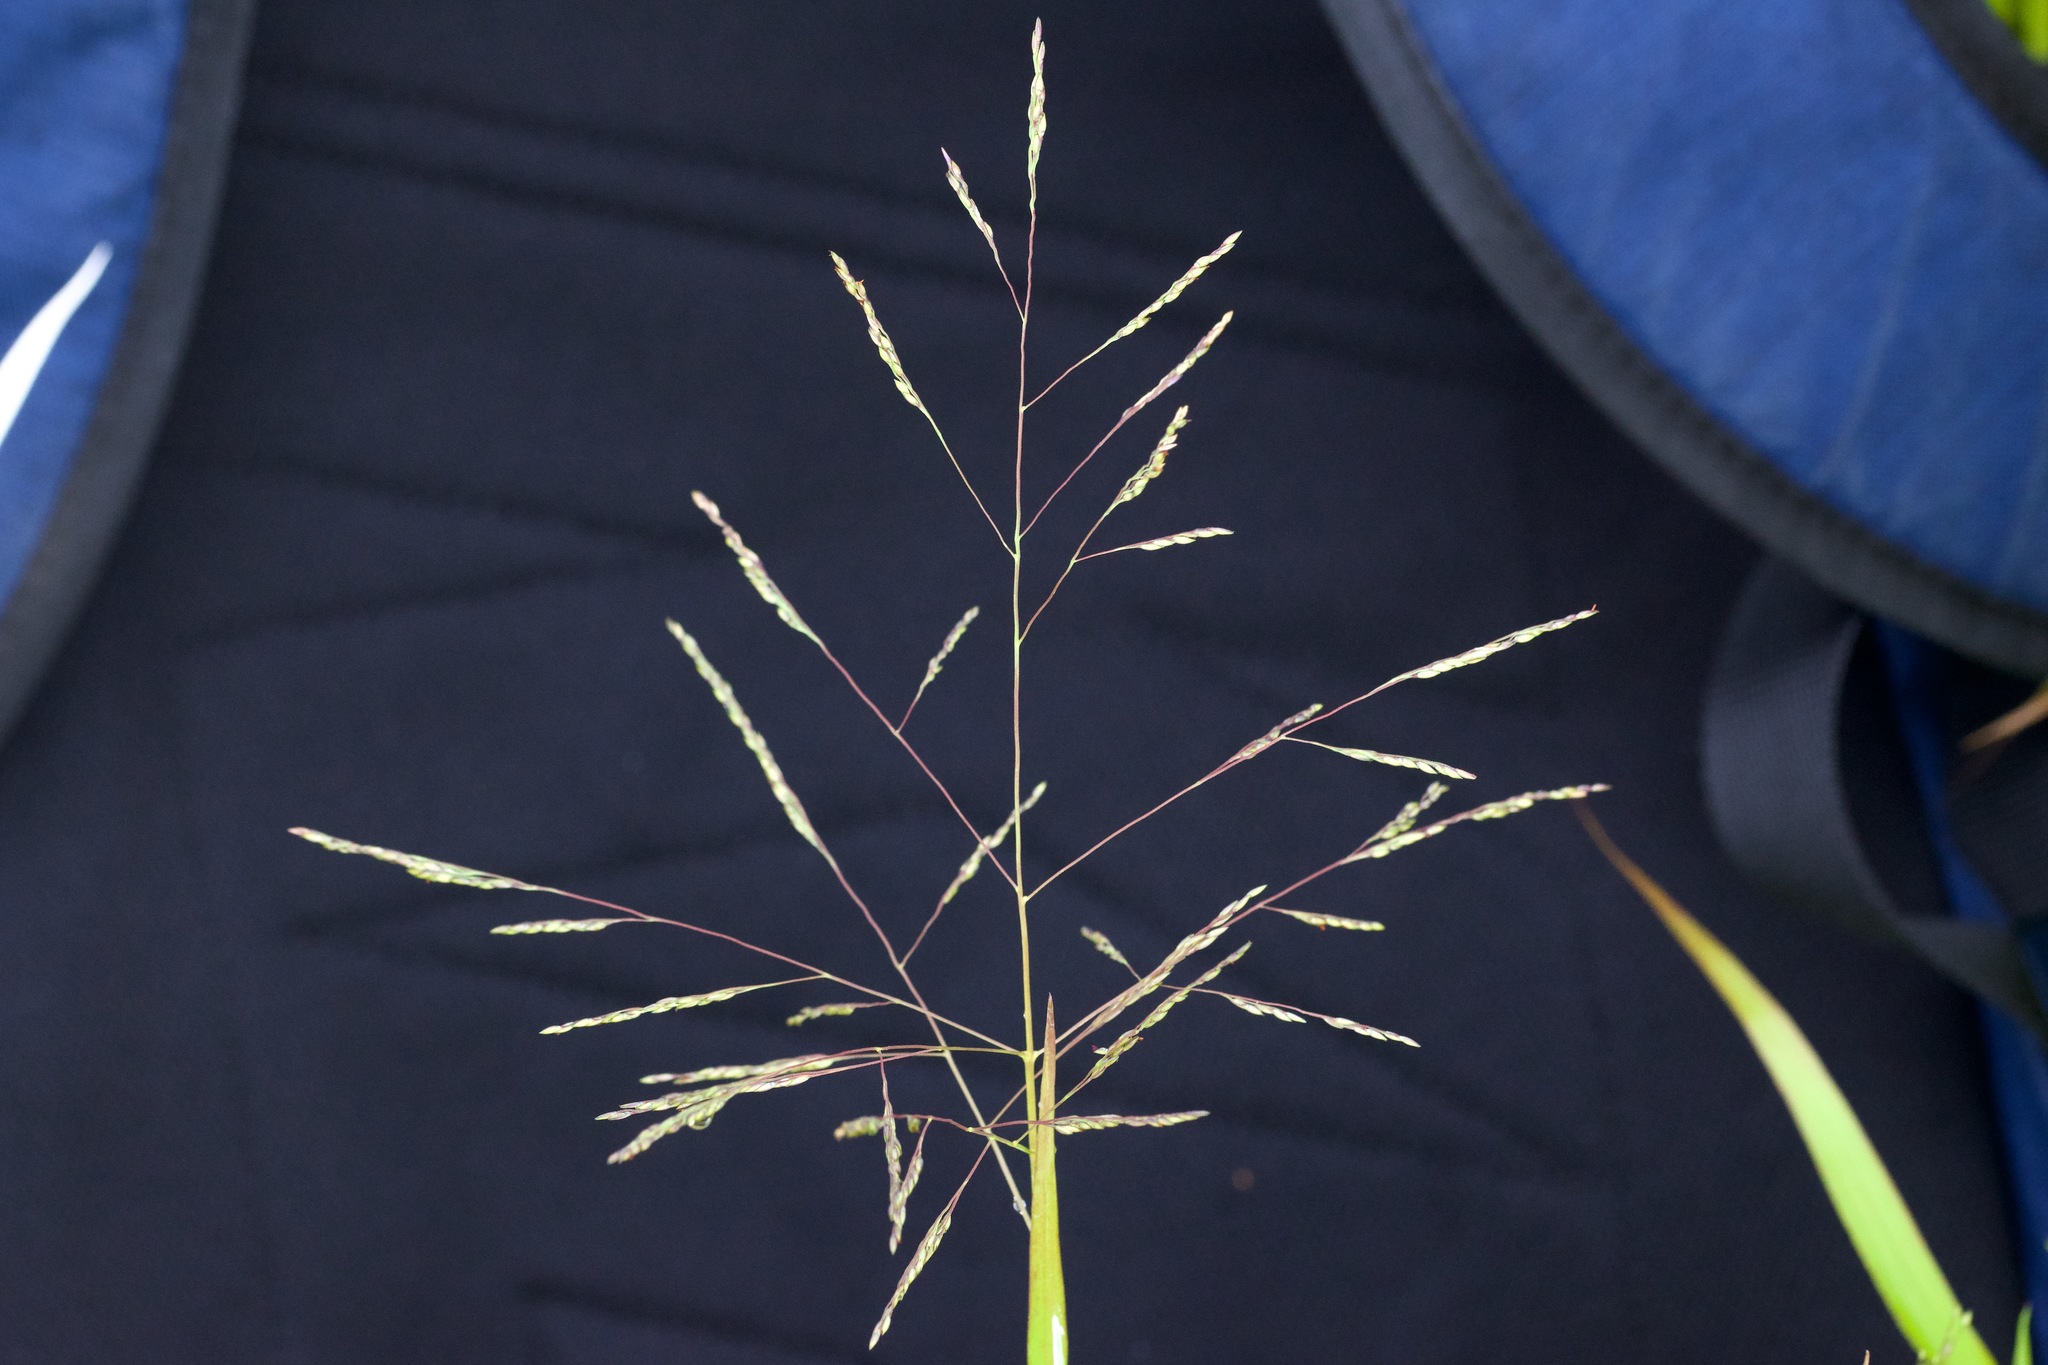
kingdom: Plantae
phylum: Tracheophyta
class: Liliopsida
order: Poales
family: Poaceae
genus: Panicum
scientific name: Panicum dichotomiflorum
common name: Autumn millet
